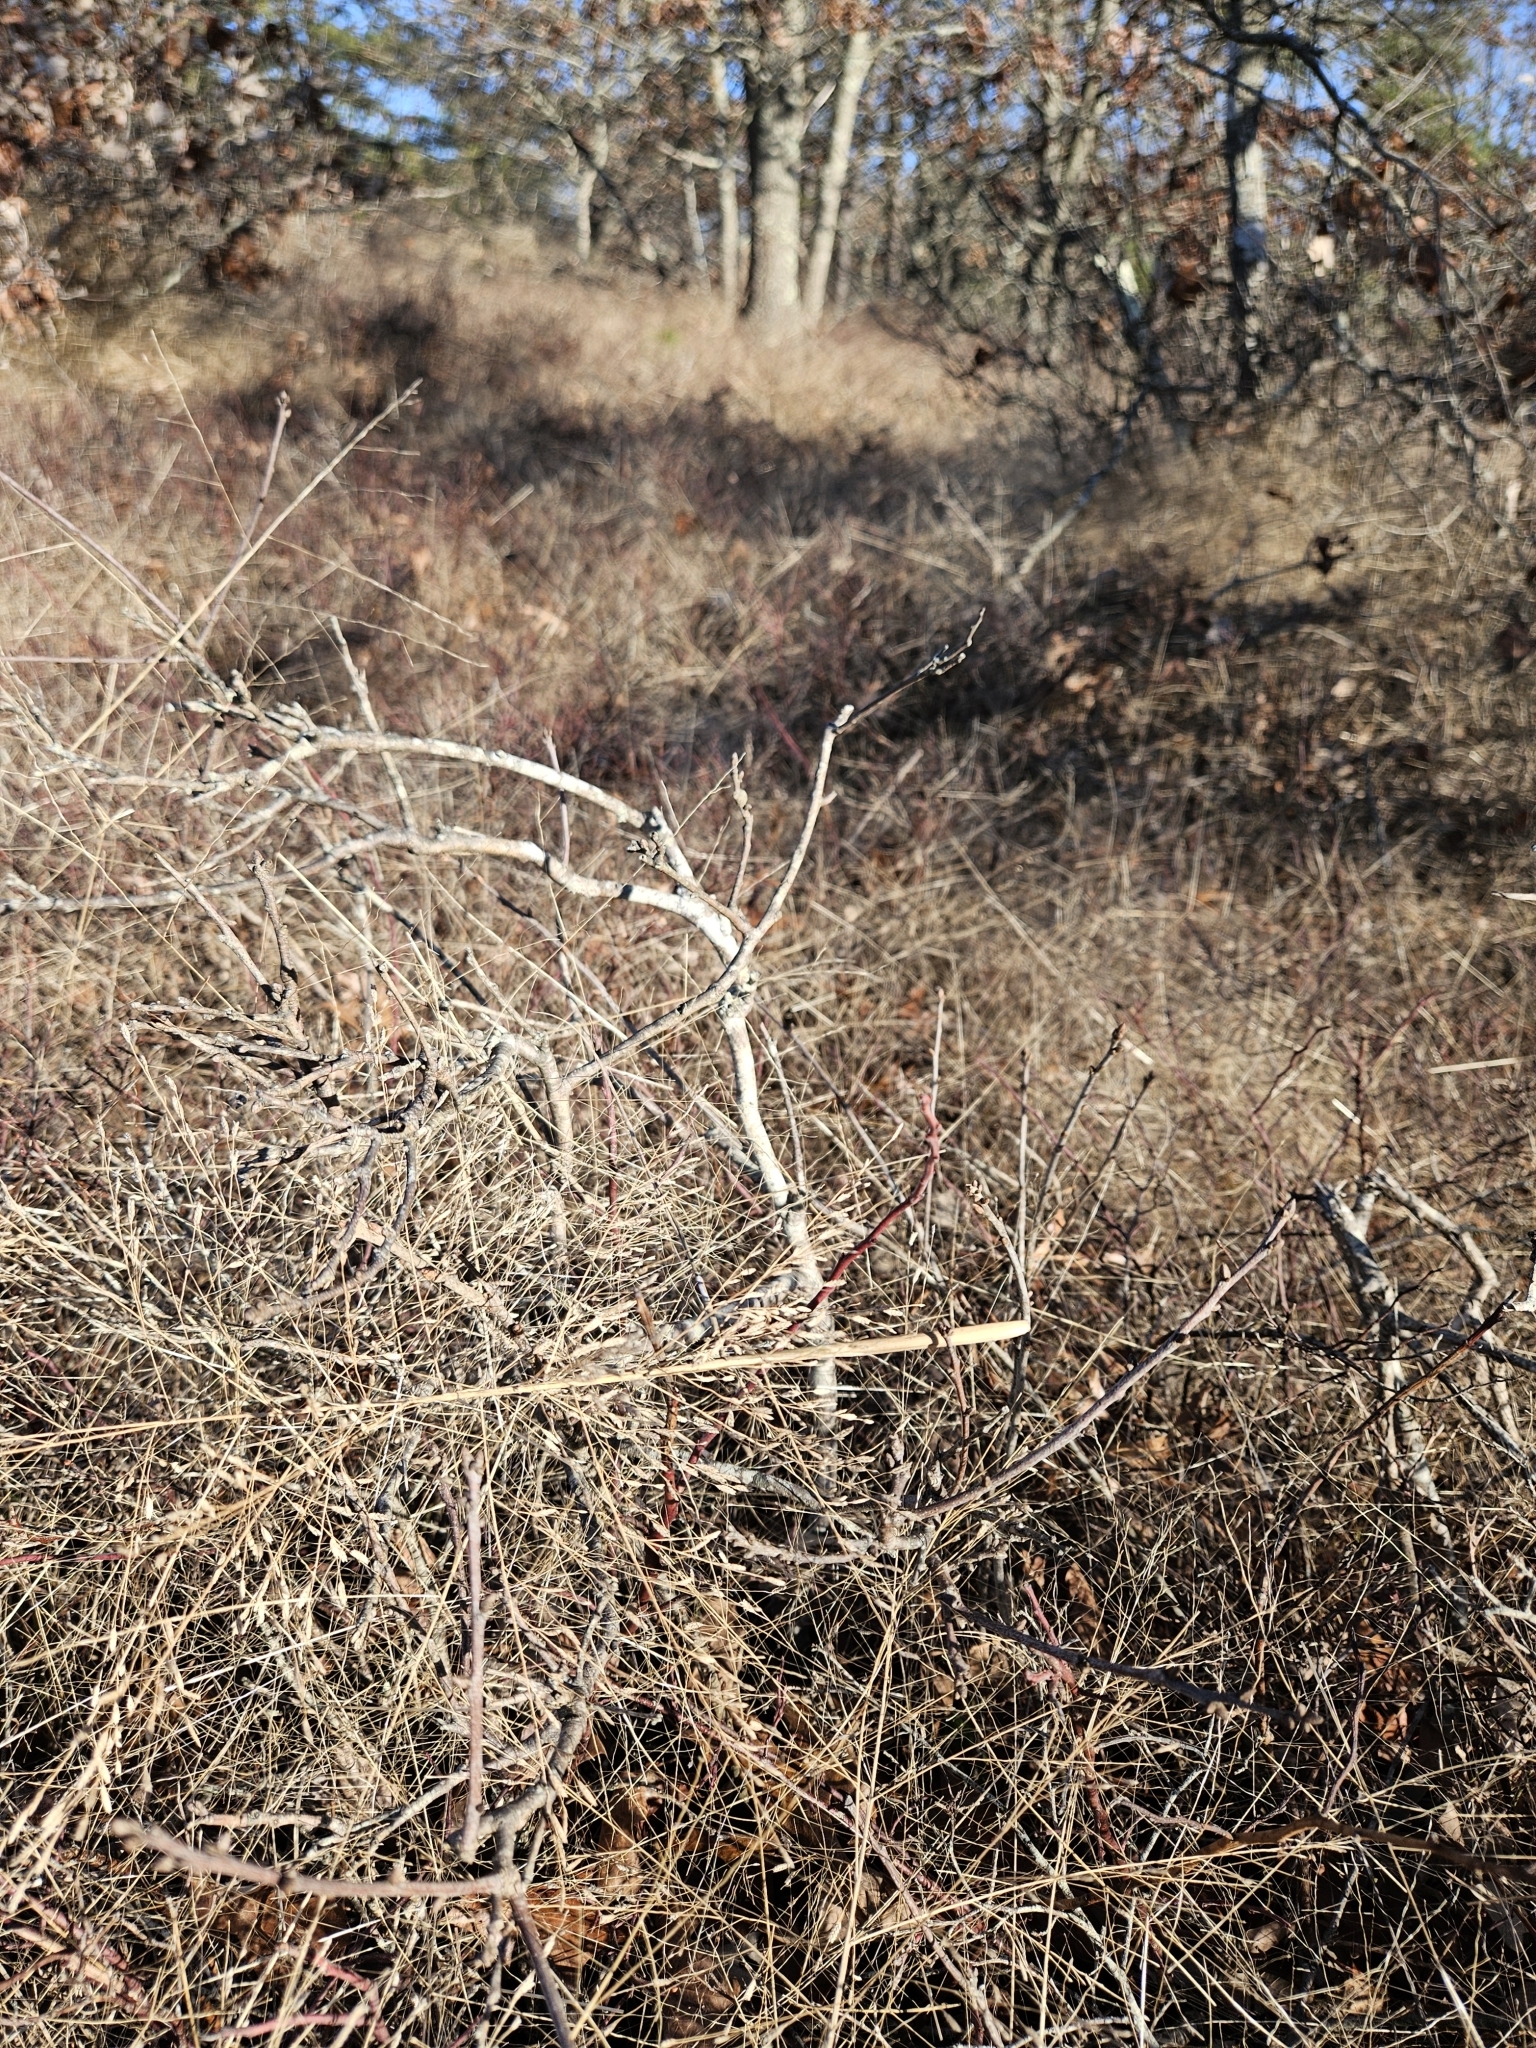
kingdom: Plantae
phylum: Tracheophyta
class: Liliopsida
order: Poales
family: Poaceae
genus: Eragrostis
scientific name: Eragrostis spectabilis
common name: Petticoat-climber
